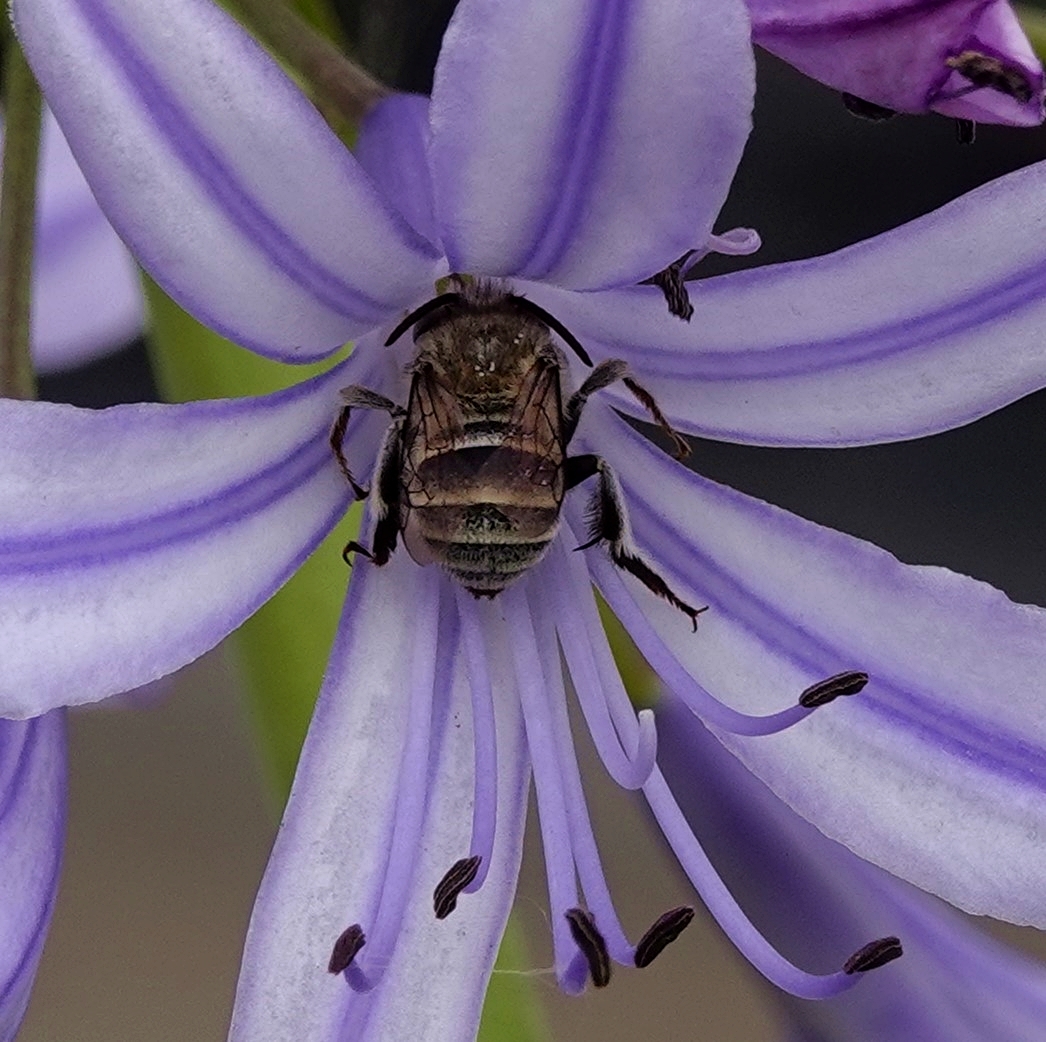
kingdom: Animalia
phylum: Arthropoda
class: Insecta
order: Hymenoptera
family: Apidae
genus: Amegilla
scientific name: Amegilla antimena
